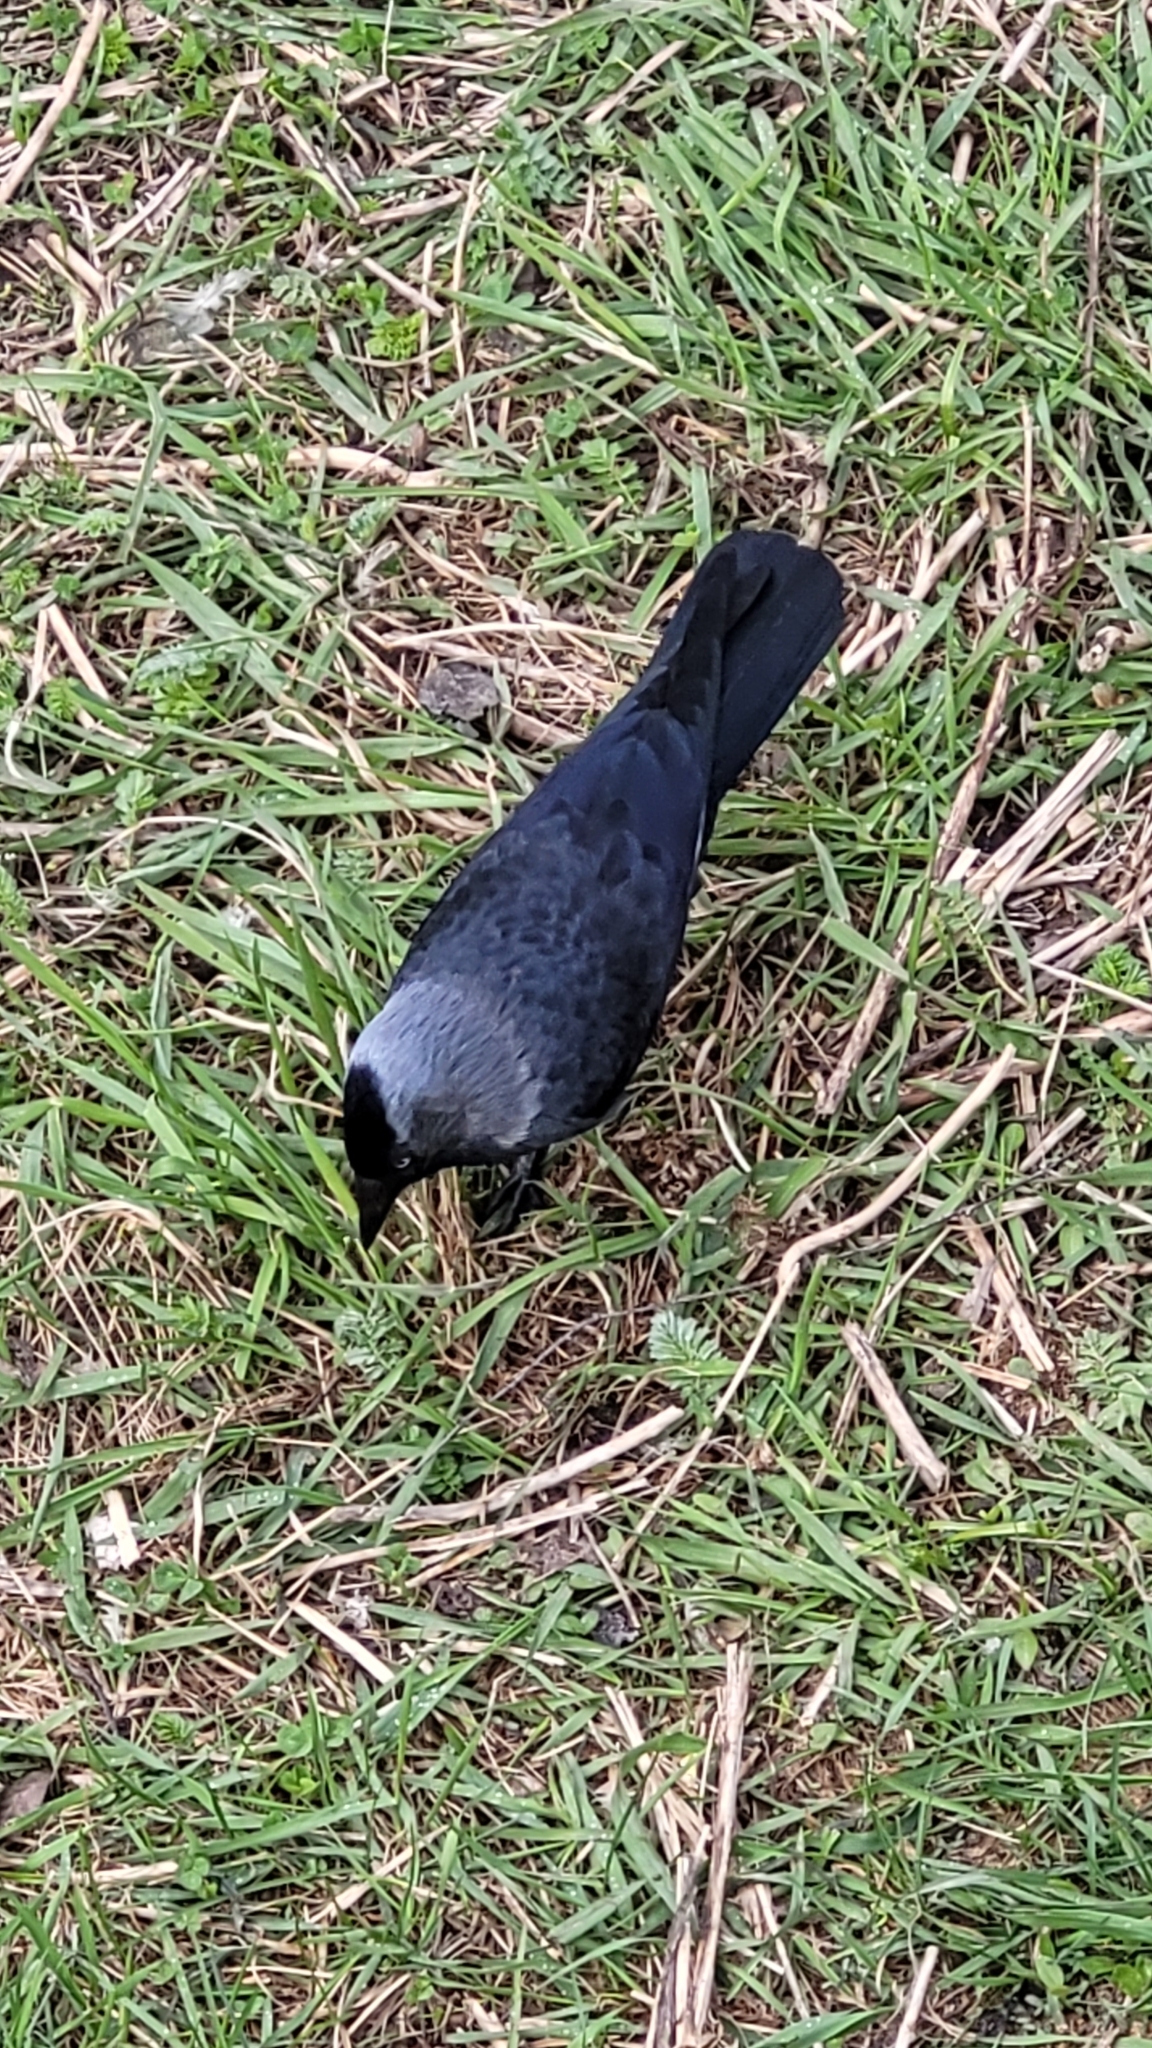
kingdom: Animalia
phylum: Chordata
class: Aves
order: Passeriformes
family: Corvidae
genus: Coloeus
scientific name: Coloeus monedula
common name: Western jackdaw
